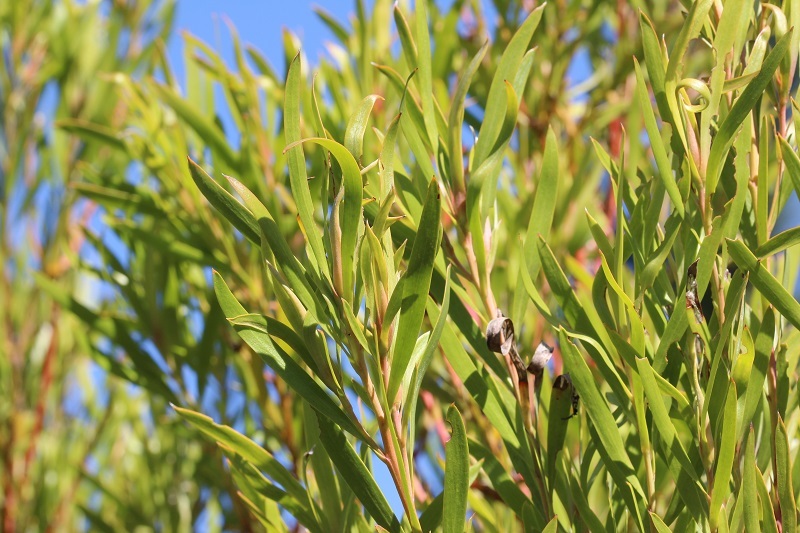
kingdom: Plantae
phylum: Tracheophyta
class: Magnoliopsida
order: Proteales
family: Proteaceae
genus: Leucadendron
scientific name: Leucadendron eucalyptifolium
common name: Gum-leaved conebush
